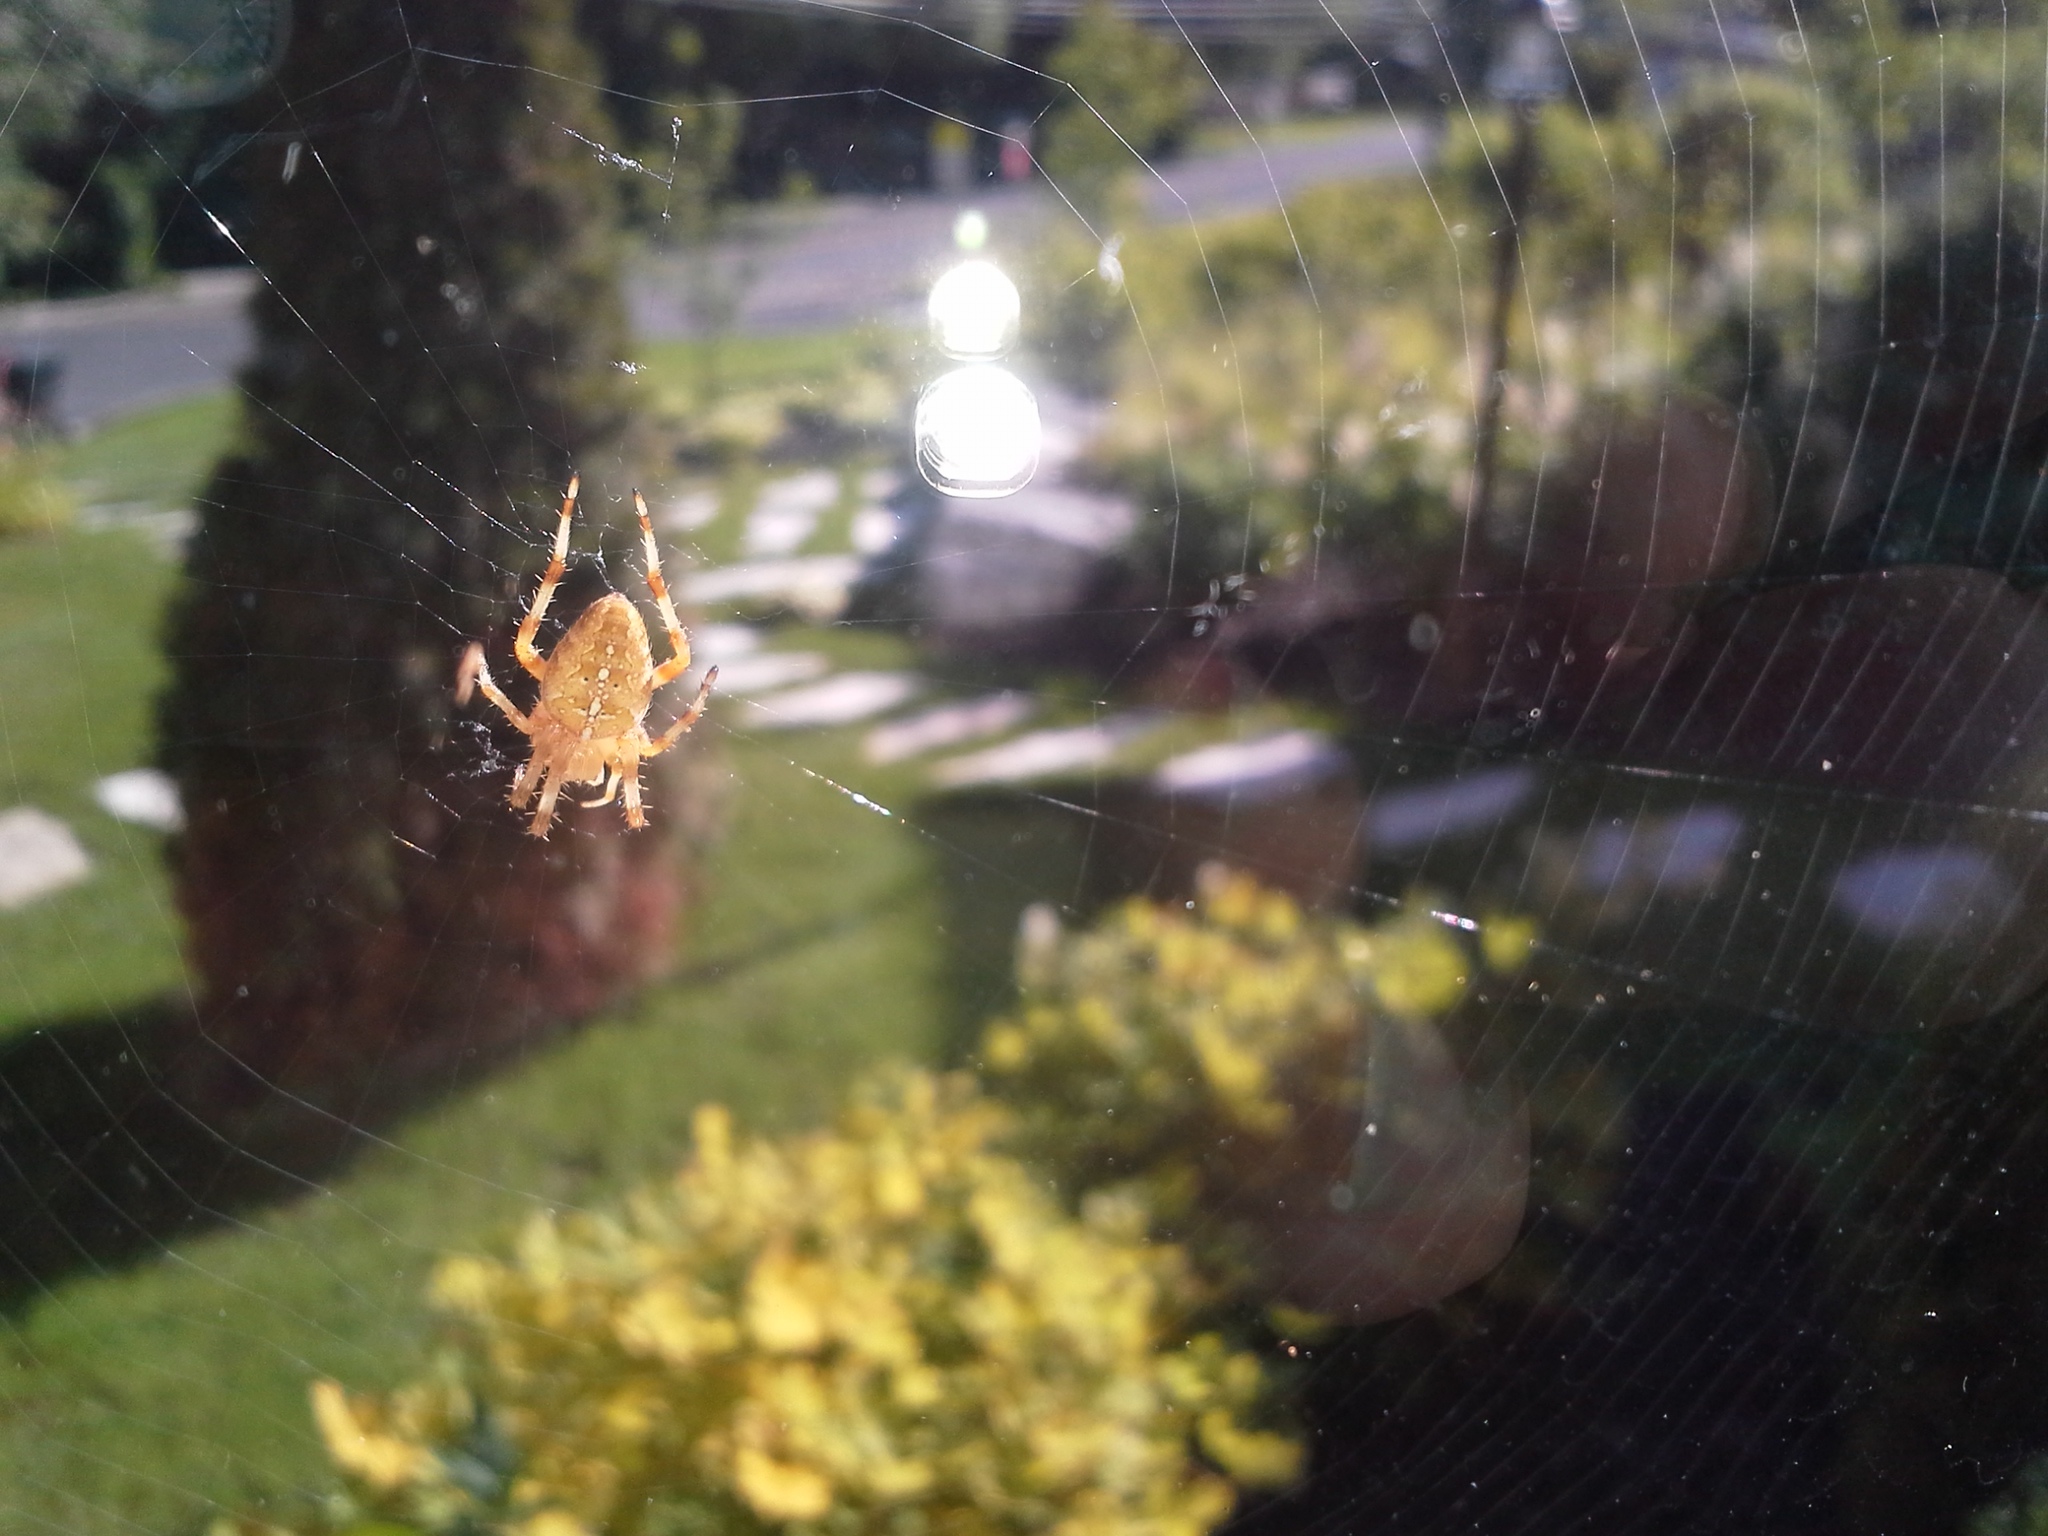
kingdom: Animalia
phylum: Arthropoda
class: Arachnida
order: Araneae
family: Araneidae
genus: Araneus
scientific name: Araneus diadematus
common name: Cross orbweaver
